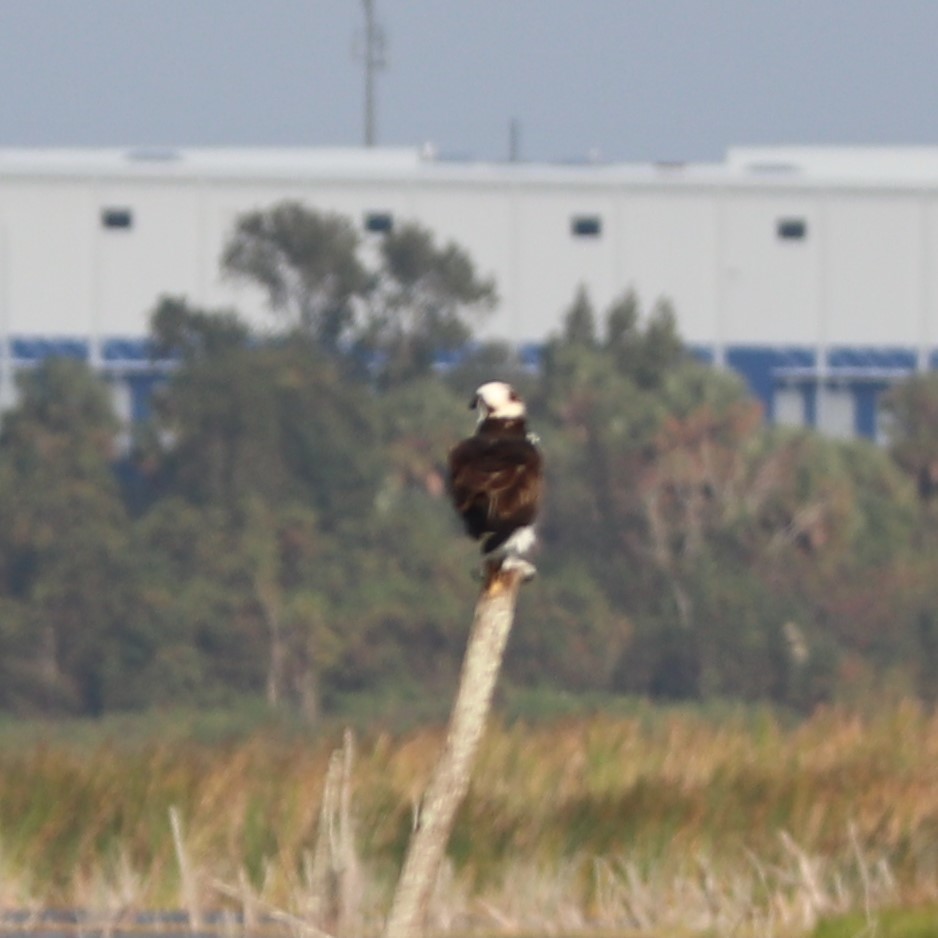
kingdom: Animalia
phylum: Chordata
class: Aves
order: Accipitriformes
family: Pandionidae
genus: Pandion
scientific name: Pandion haliaetus
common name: Osprey
